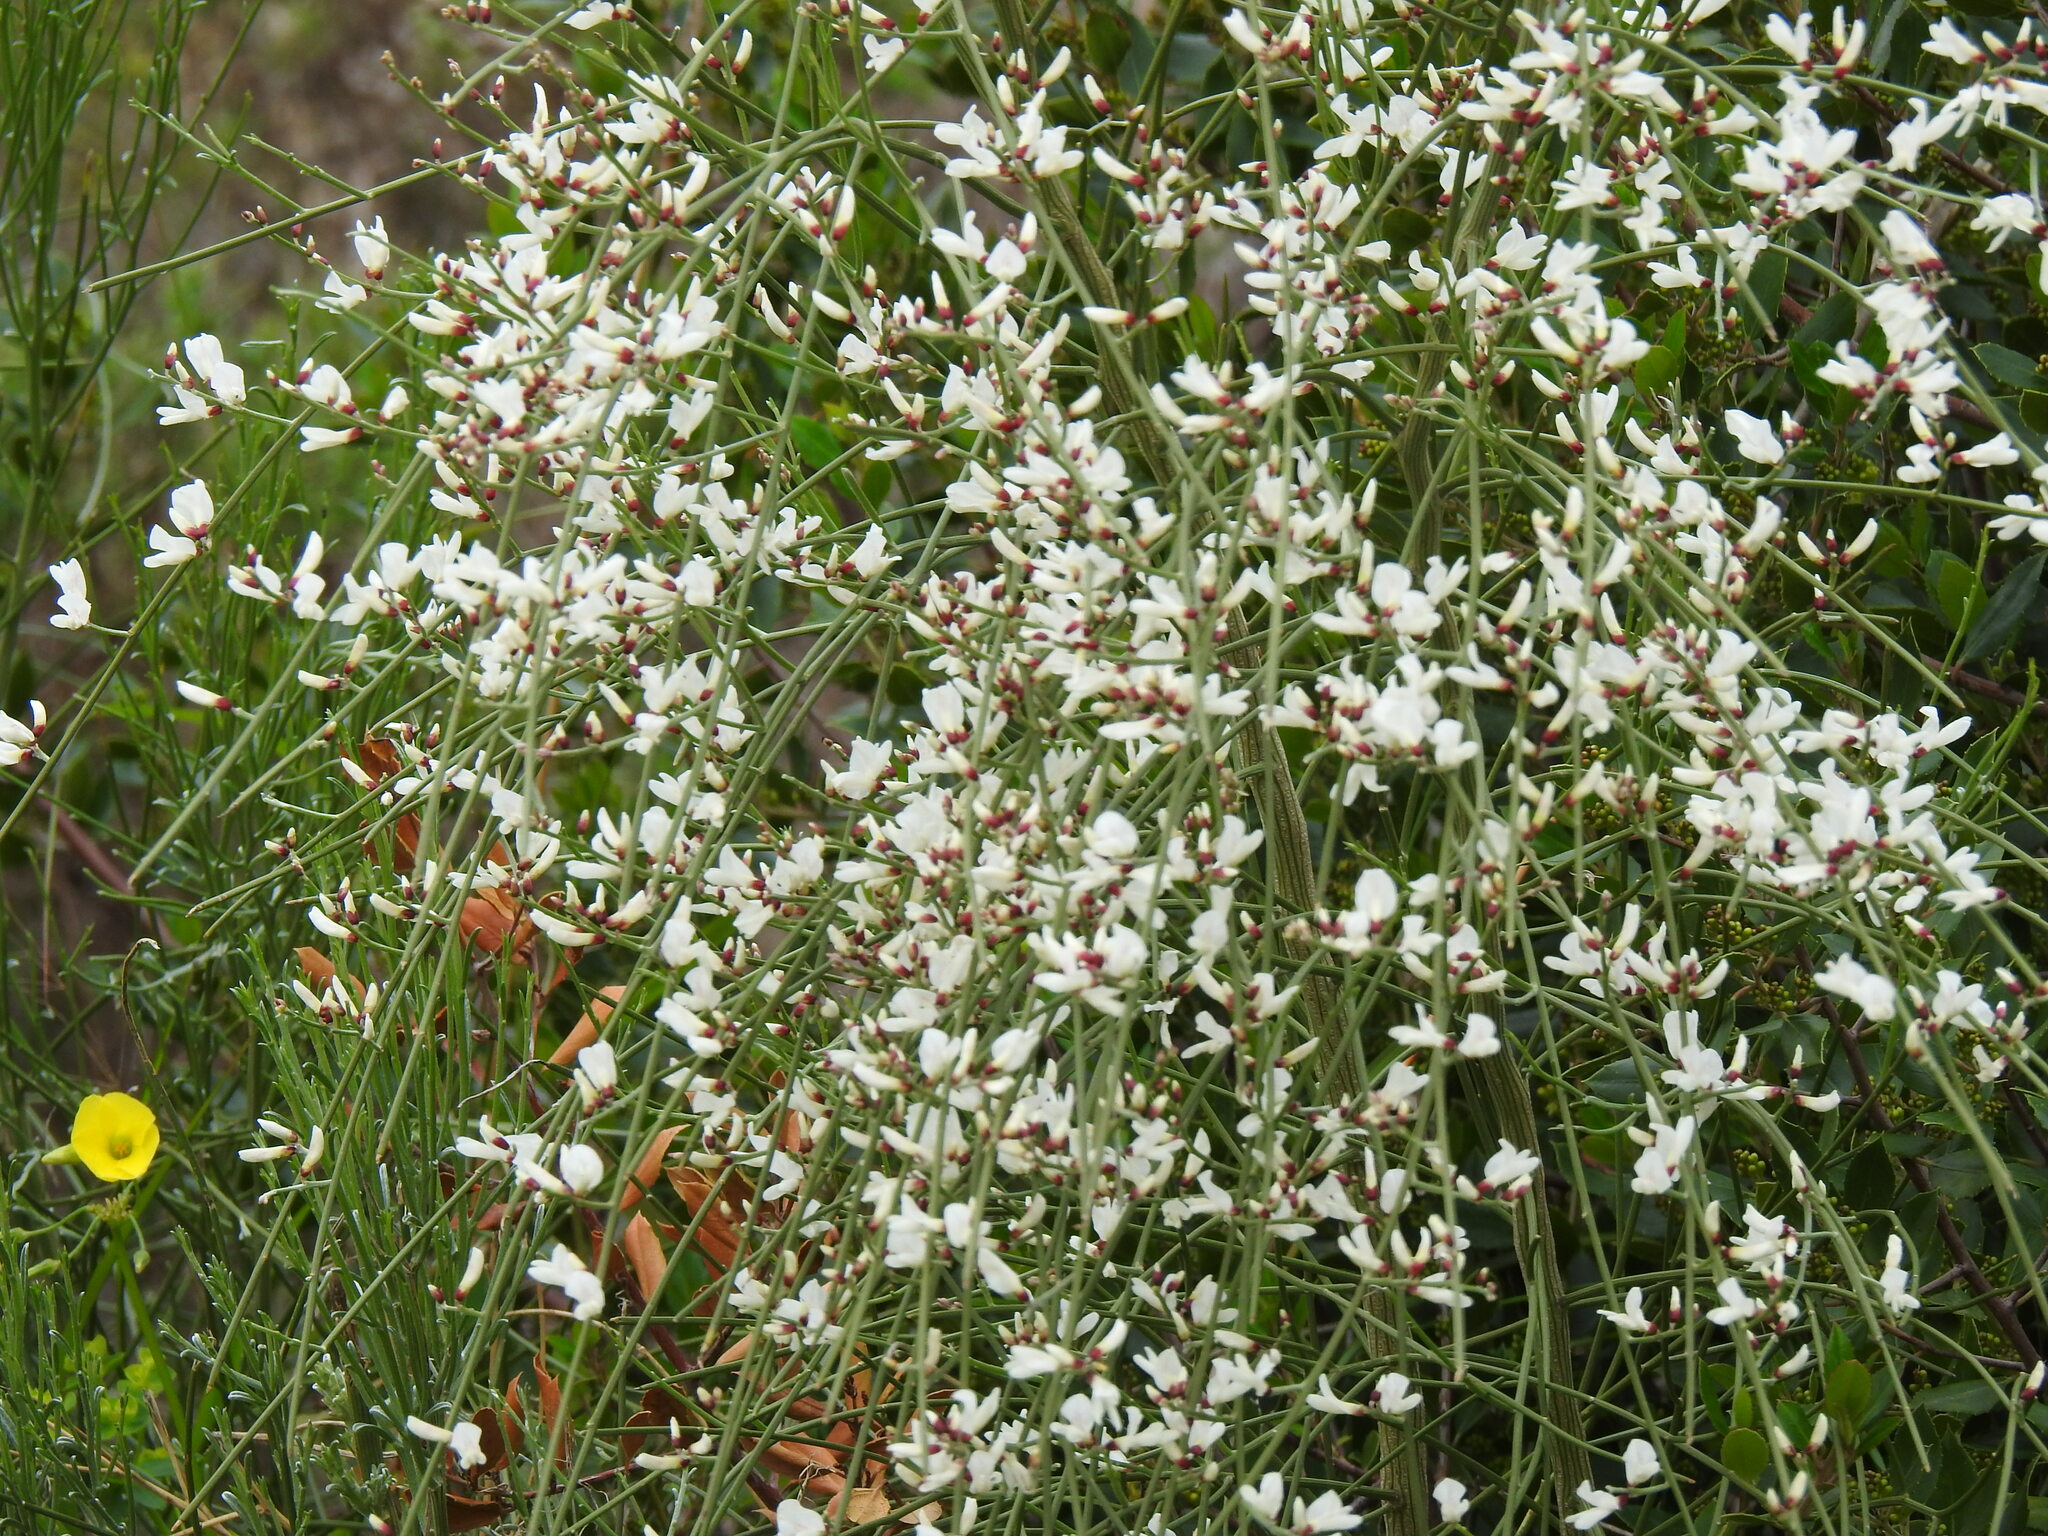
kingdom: Plantae
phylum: Tracheophyta
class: Magnoliopsida
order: Fabales
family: Fabaceae
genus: Retama
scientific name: Retama monosperma
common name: Bridal broom
